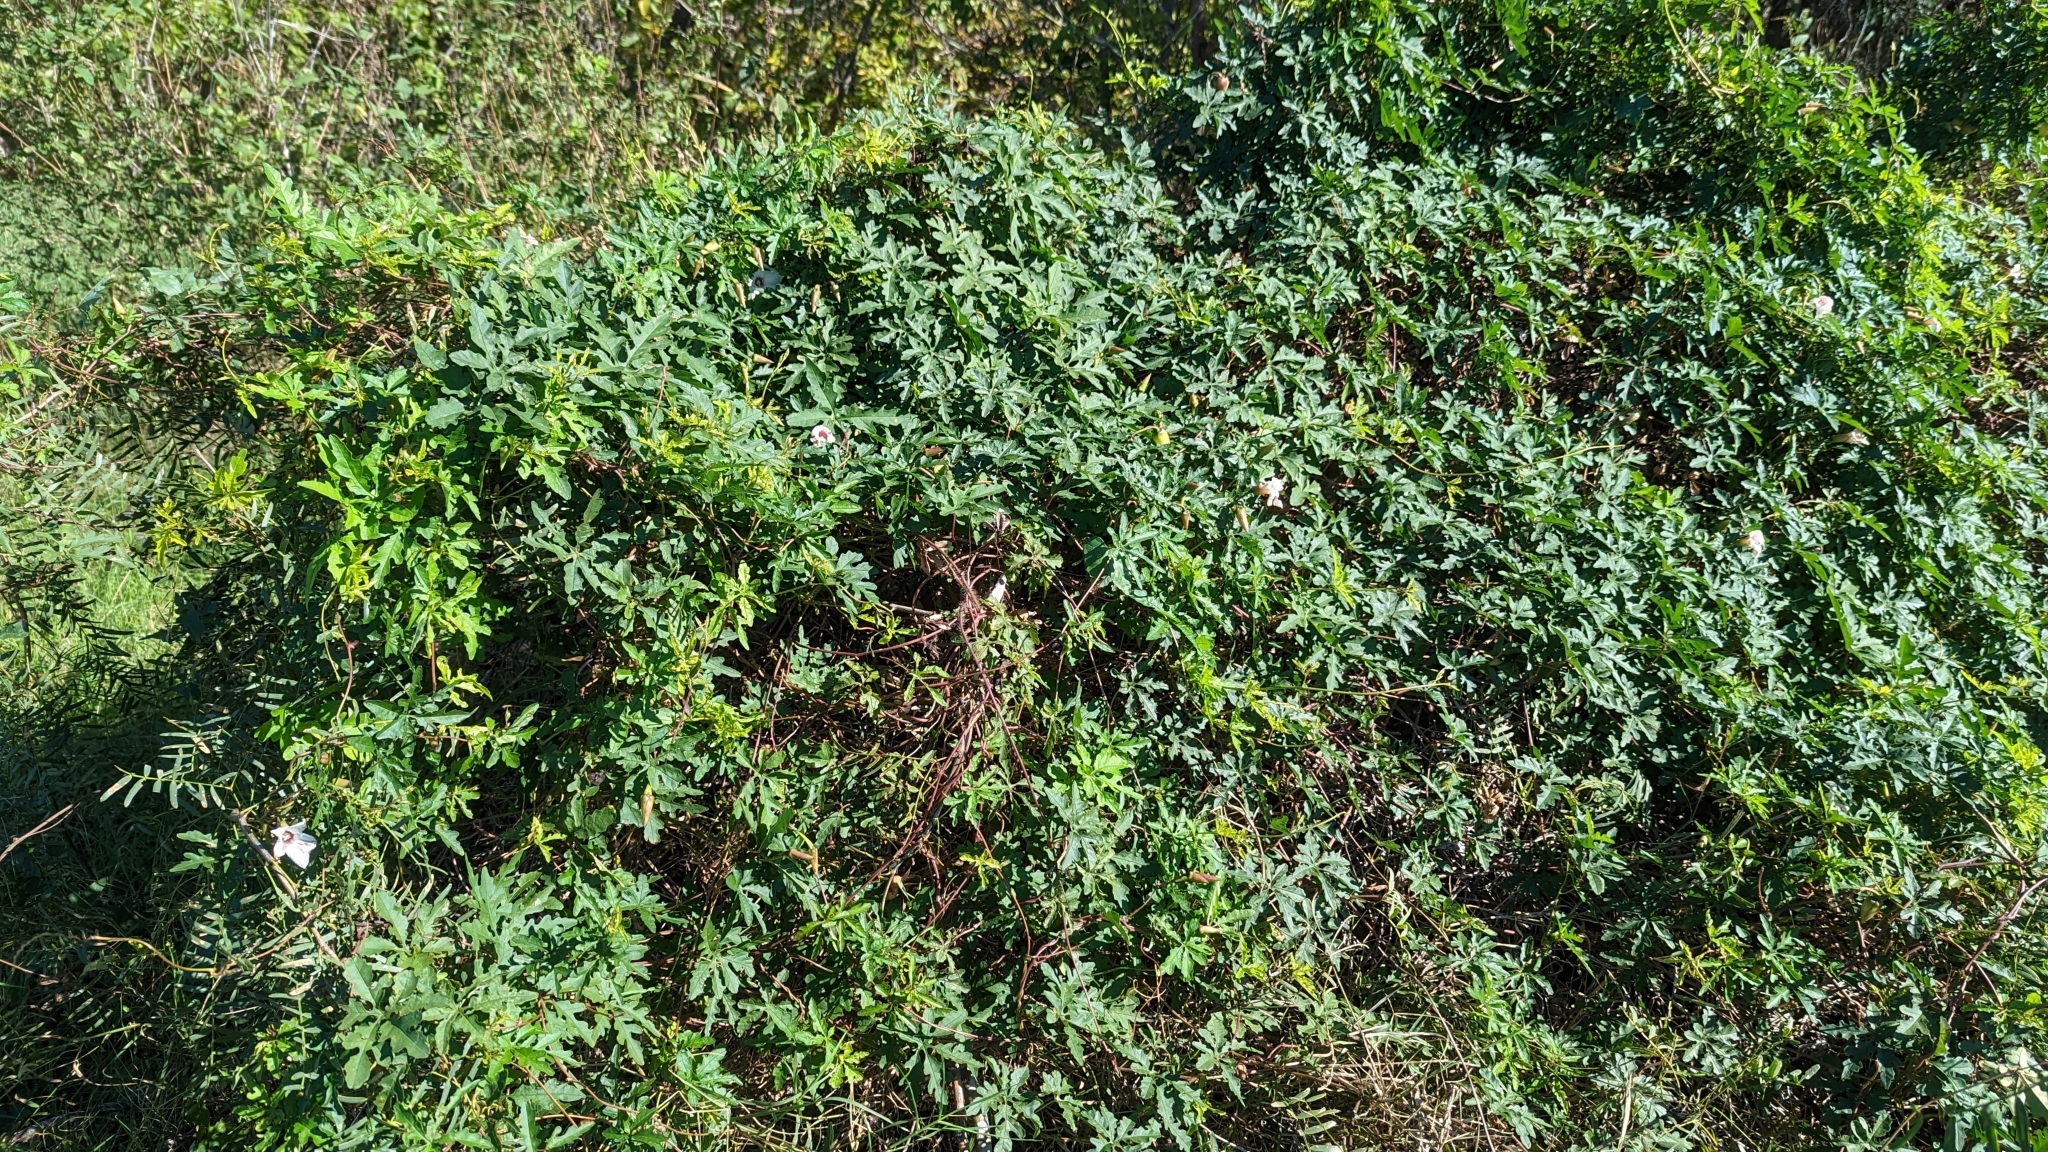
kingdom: Plantae
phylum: Tracheophyta
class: Magnoliopsida
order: Solanales
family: Convolvulaceae
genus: Distimake
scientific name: Distimake dissectus
